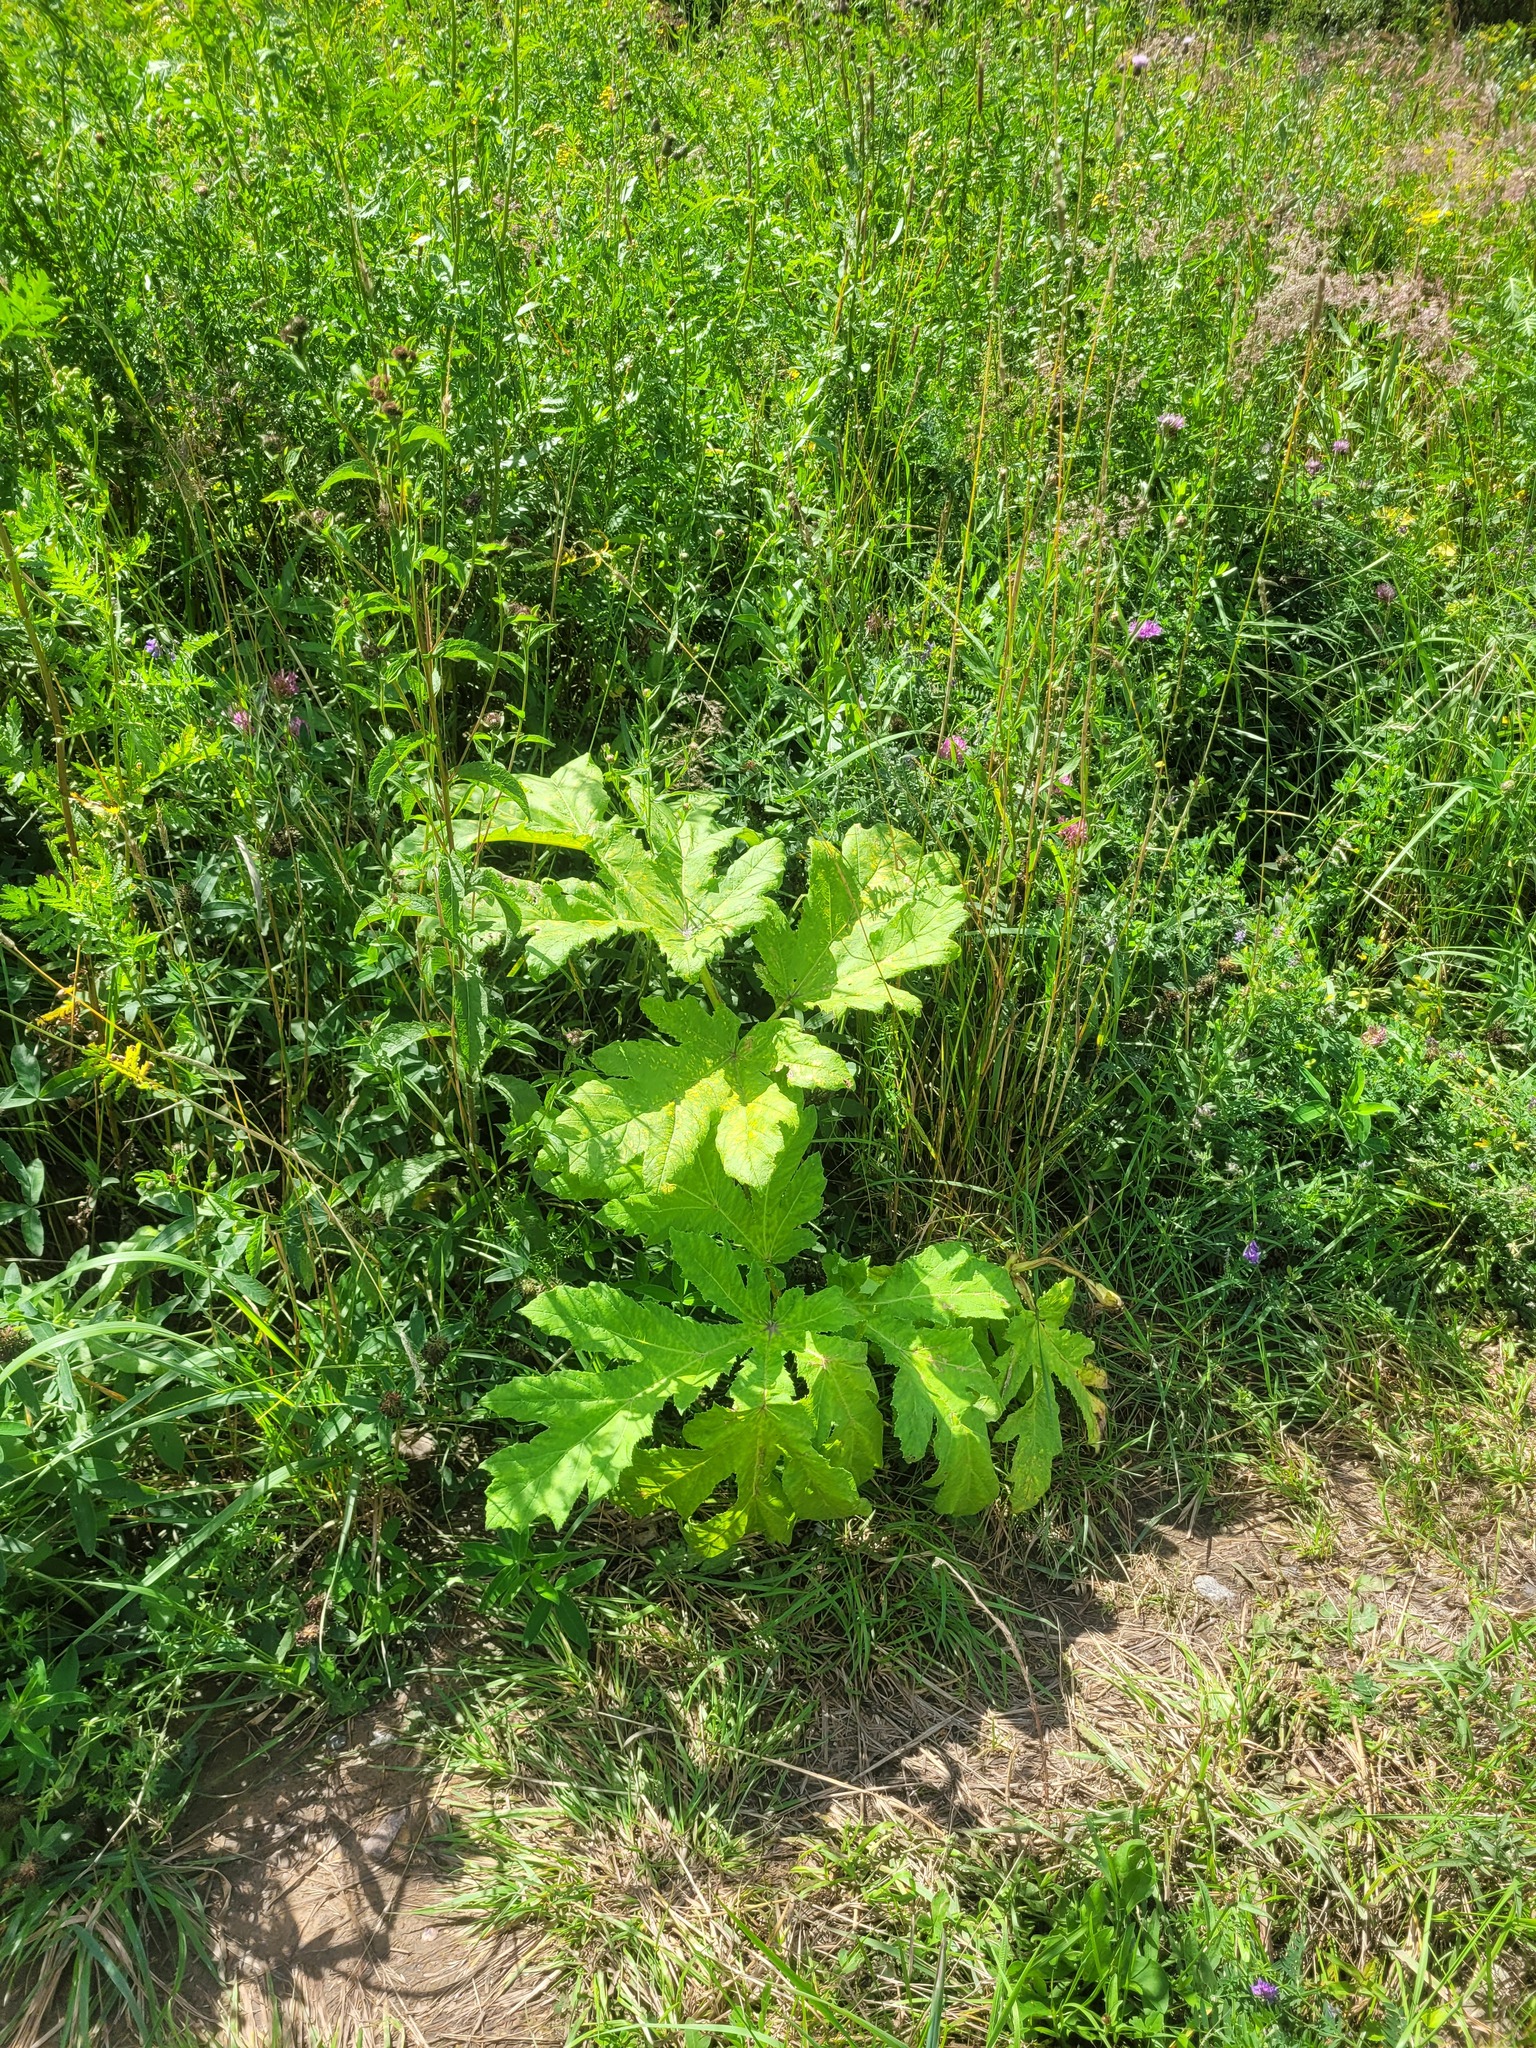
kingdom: Plantae
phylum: Tracheophyta
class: Magnoliopsida
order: Apiales
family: Apiaceae
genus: Heracleum
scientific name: Heracleum sosnowskyi
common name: Sosnowsky's hogweed
